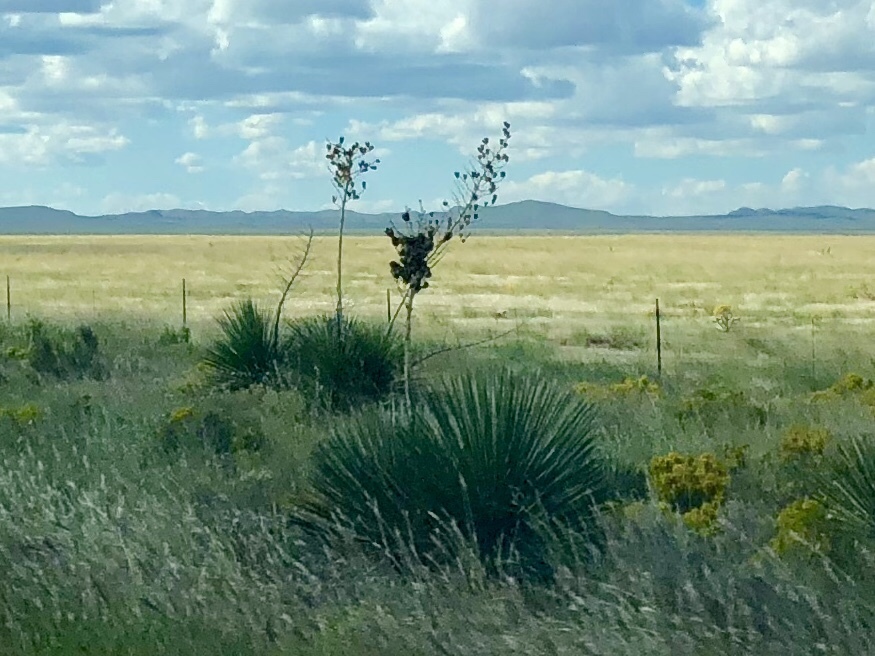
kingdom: Plantae
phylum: Tracheophyta
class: Liliopsida
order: Asparagales
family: Asparagaceae
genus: Yucca
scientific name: Yucca elata
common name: Palmella
